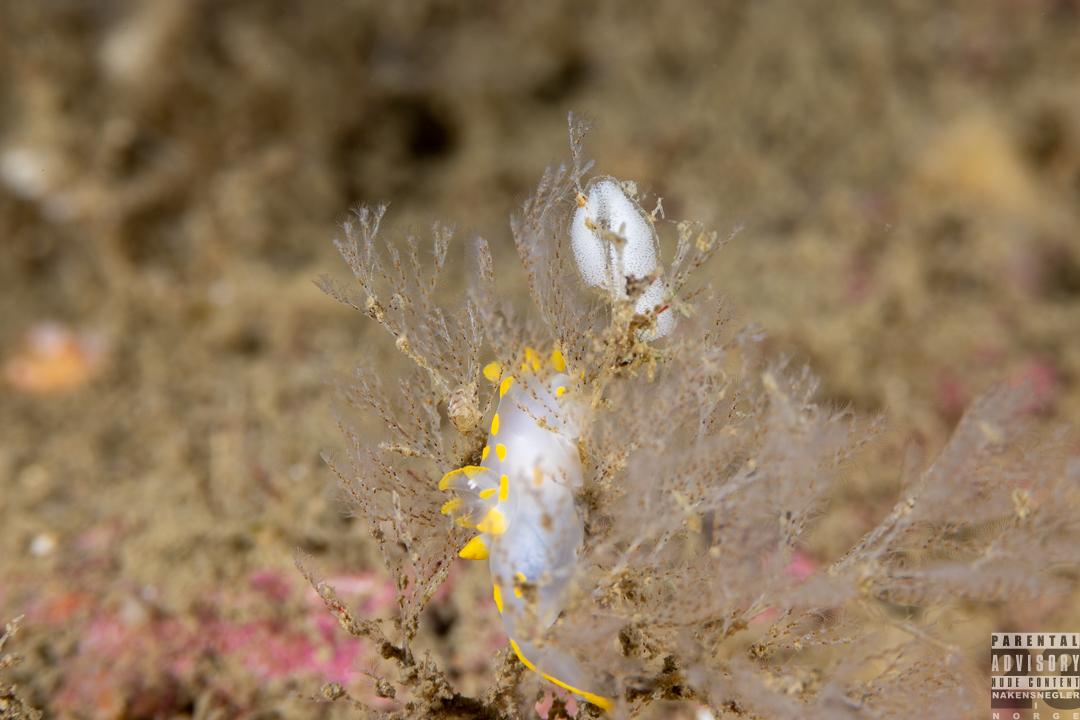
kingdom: Animalia
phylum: Mollusca
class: Gastropoda
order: Nudibranchia
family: Polyceridae
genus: Polycera
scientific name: Polycera quadrilineata
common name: Four-striped polycera
